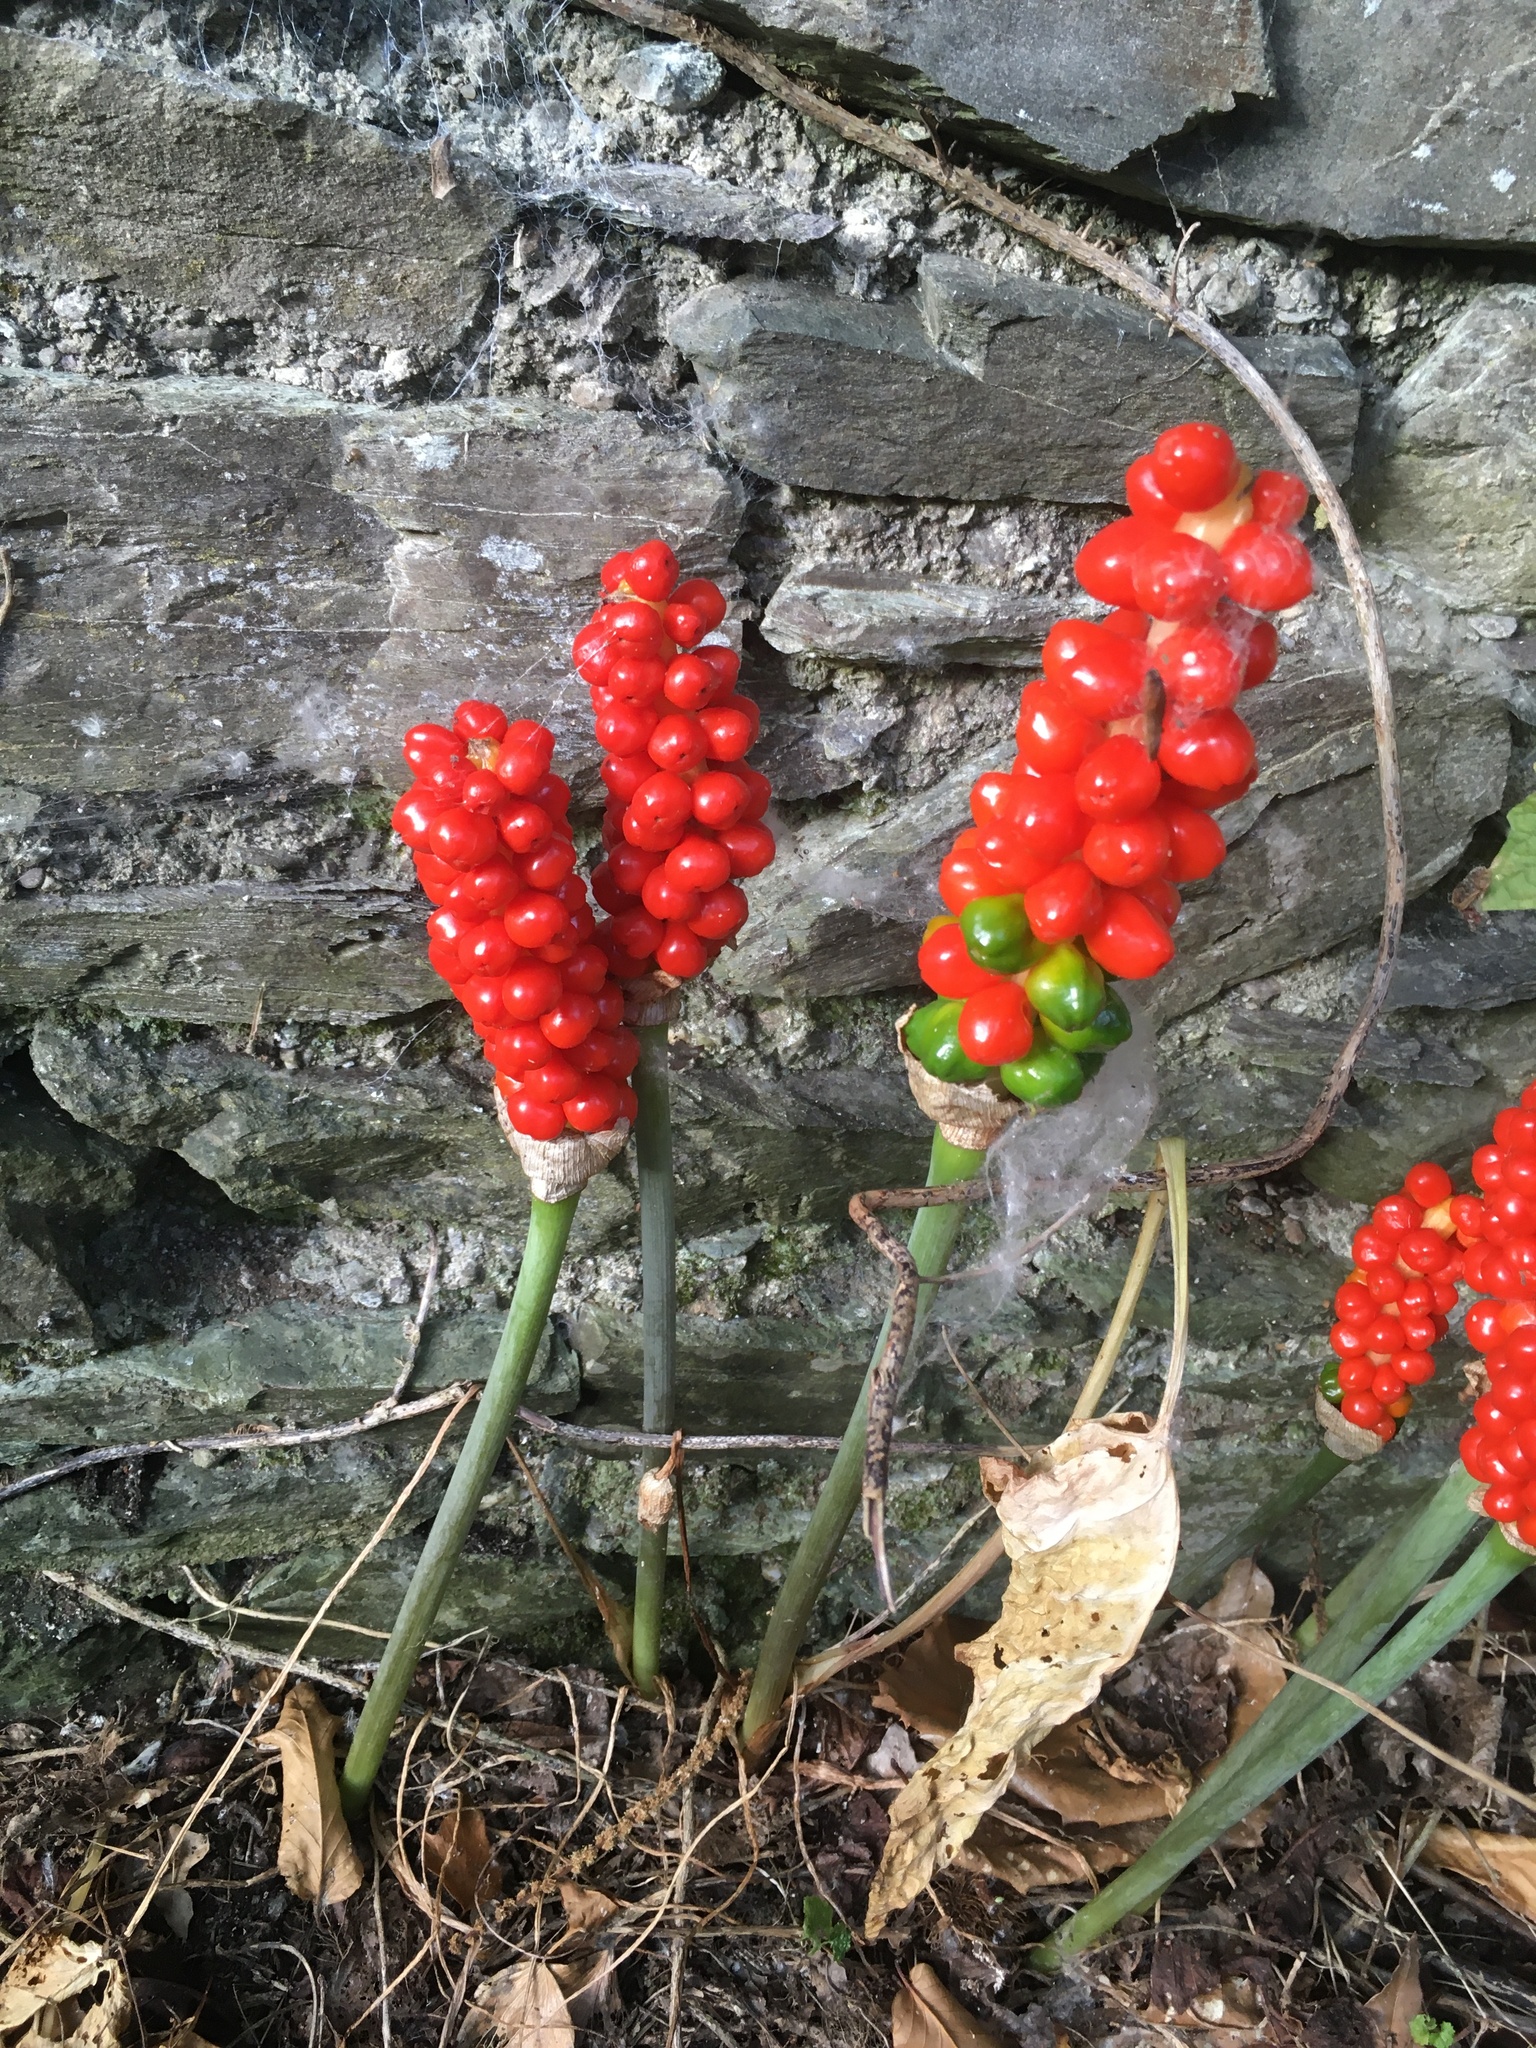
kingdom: Plantae
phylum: Tracheophyta
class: Liliopsida
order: Alismatales
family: Araceae
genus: Arum
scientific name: Arum maculatum
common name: Lords-and-ladies
